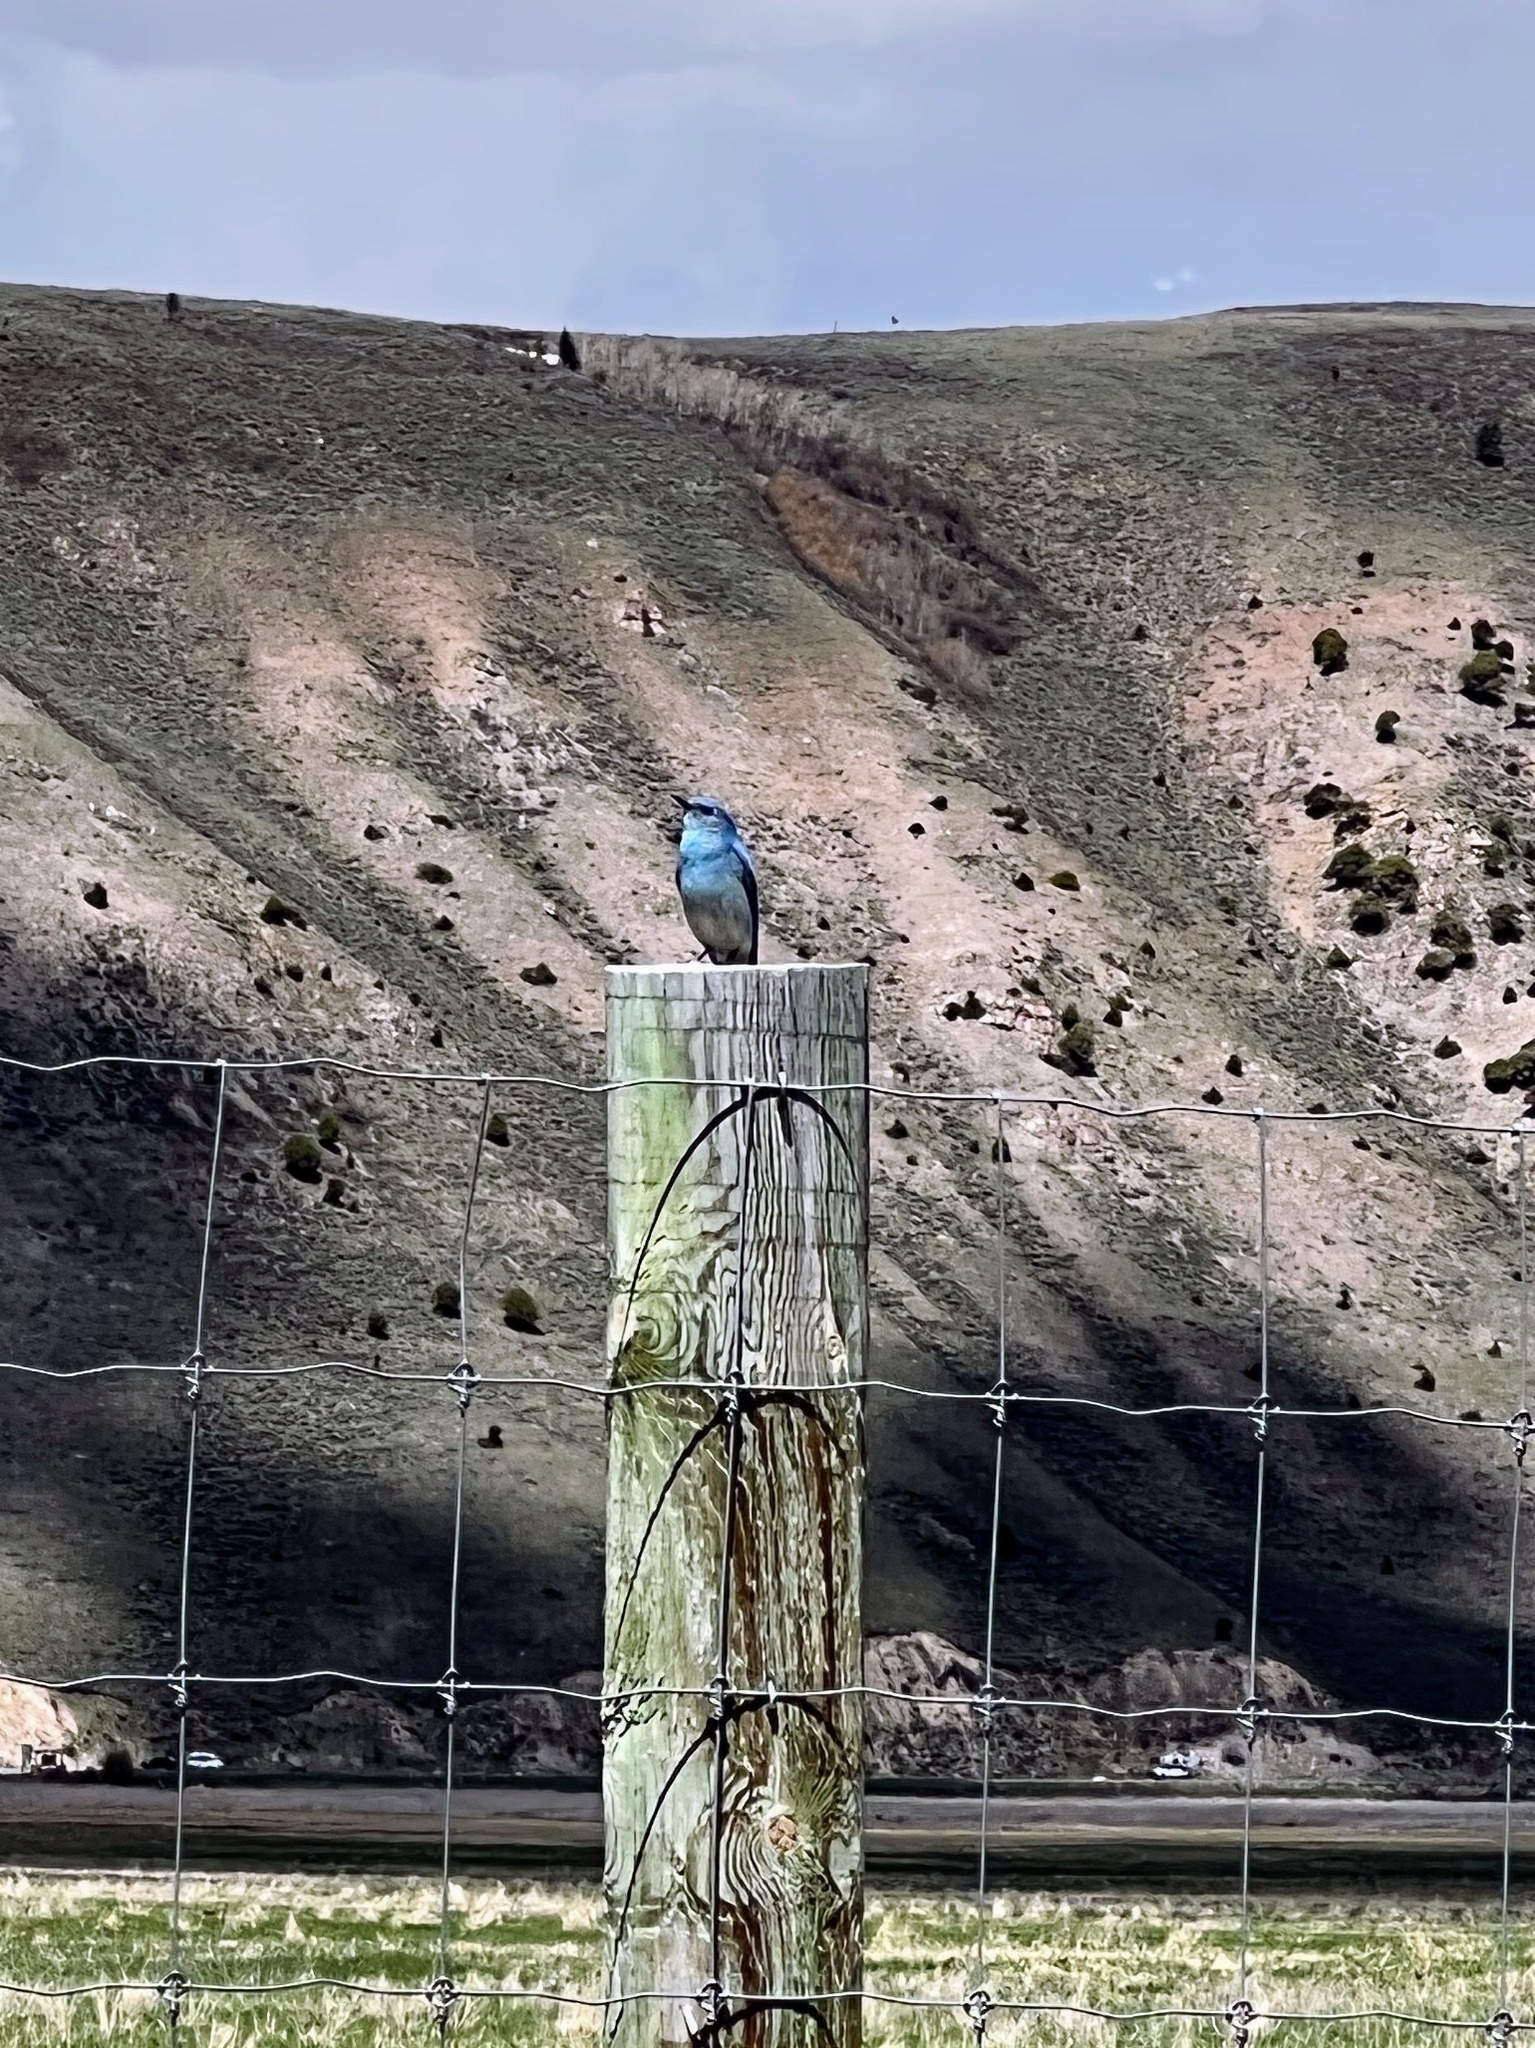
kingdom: Animalia
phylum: Chordata
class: Aves
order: Passeriformes
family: Turdidae
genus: Sialia
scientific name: Sialia currucoides
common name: Mountain bluebird
